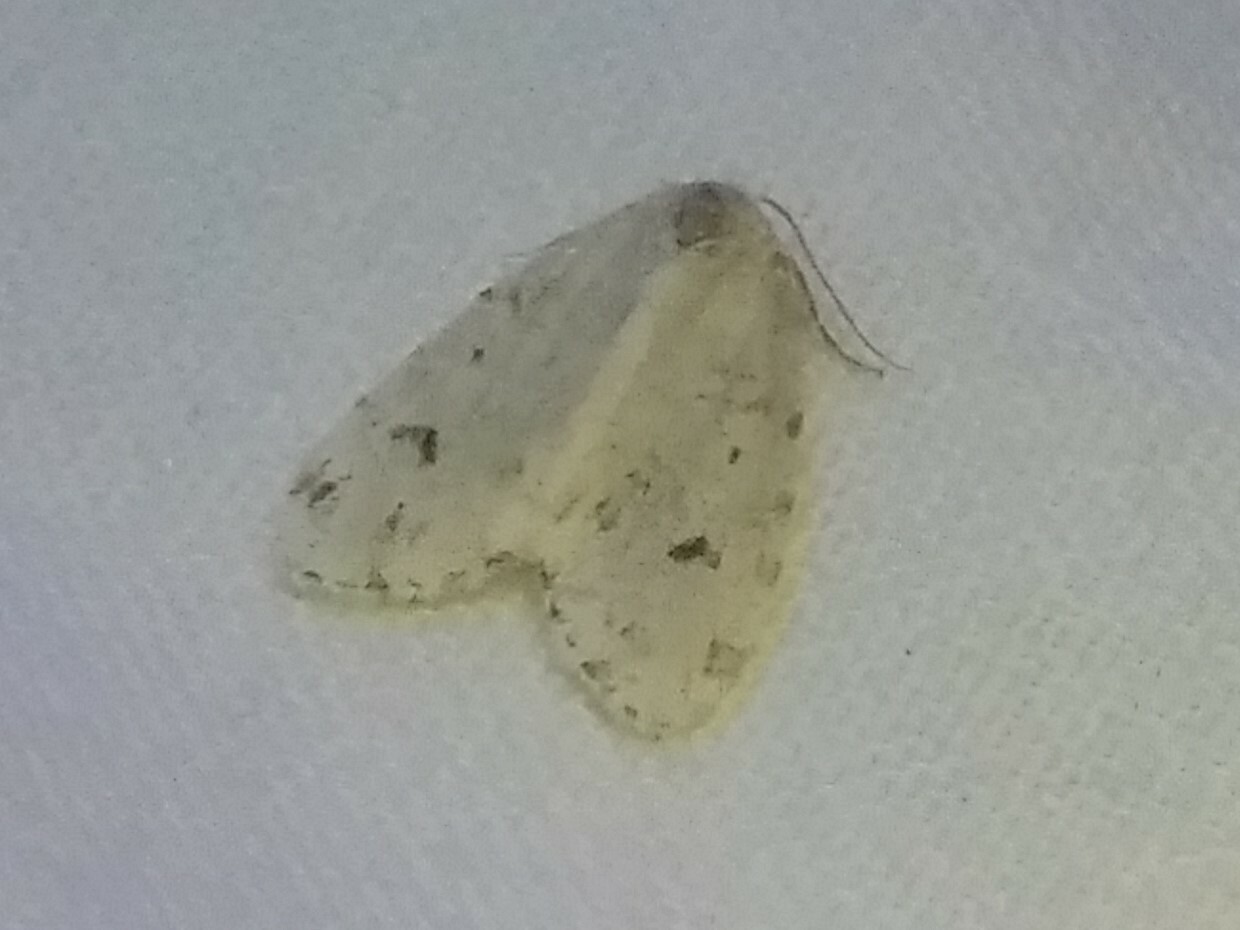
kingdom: Animalia
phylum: Arthropoda
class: Insecta
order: Lepidoptera
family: Erebidae
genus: Clemensia
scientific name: Clemensia albata
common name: Little white lichen moth
